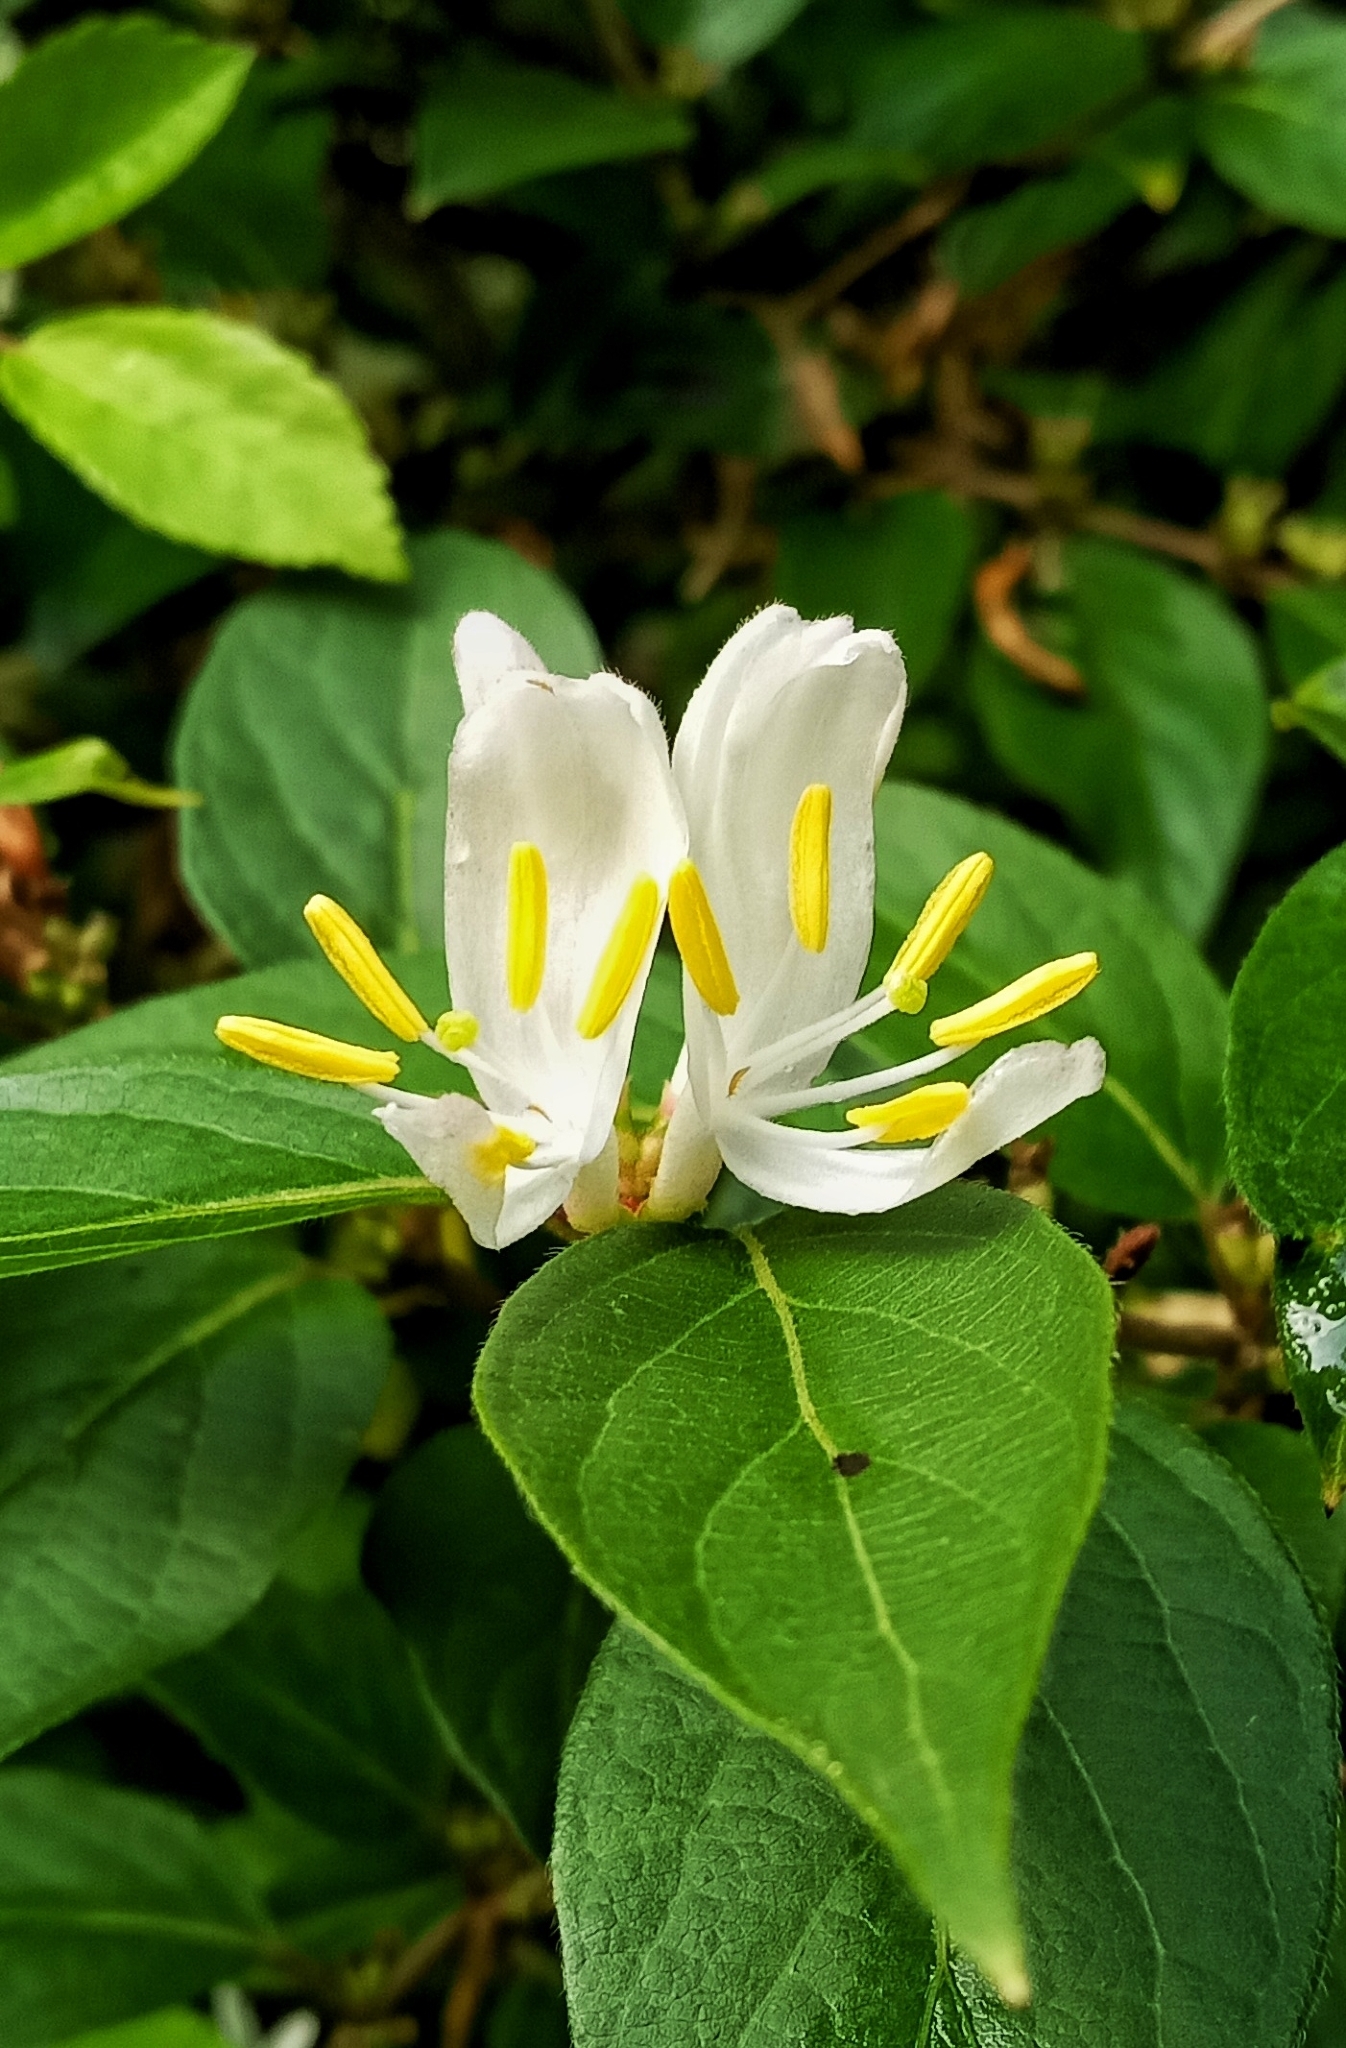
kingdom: Plantae
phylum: Tracheophyta
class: Magnoliopsida
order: Dipsacales
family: Caprifoliaceae
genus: Lonicera
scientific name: Lonicera maackii
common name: Amur honeysuckle
